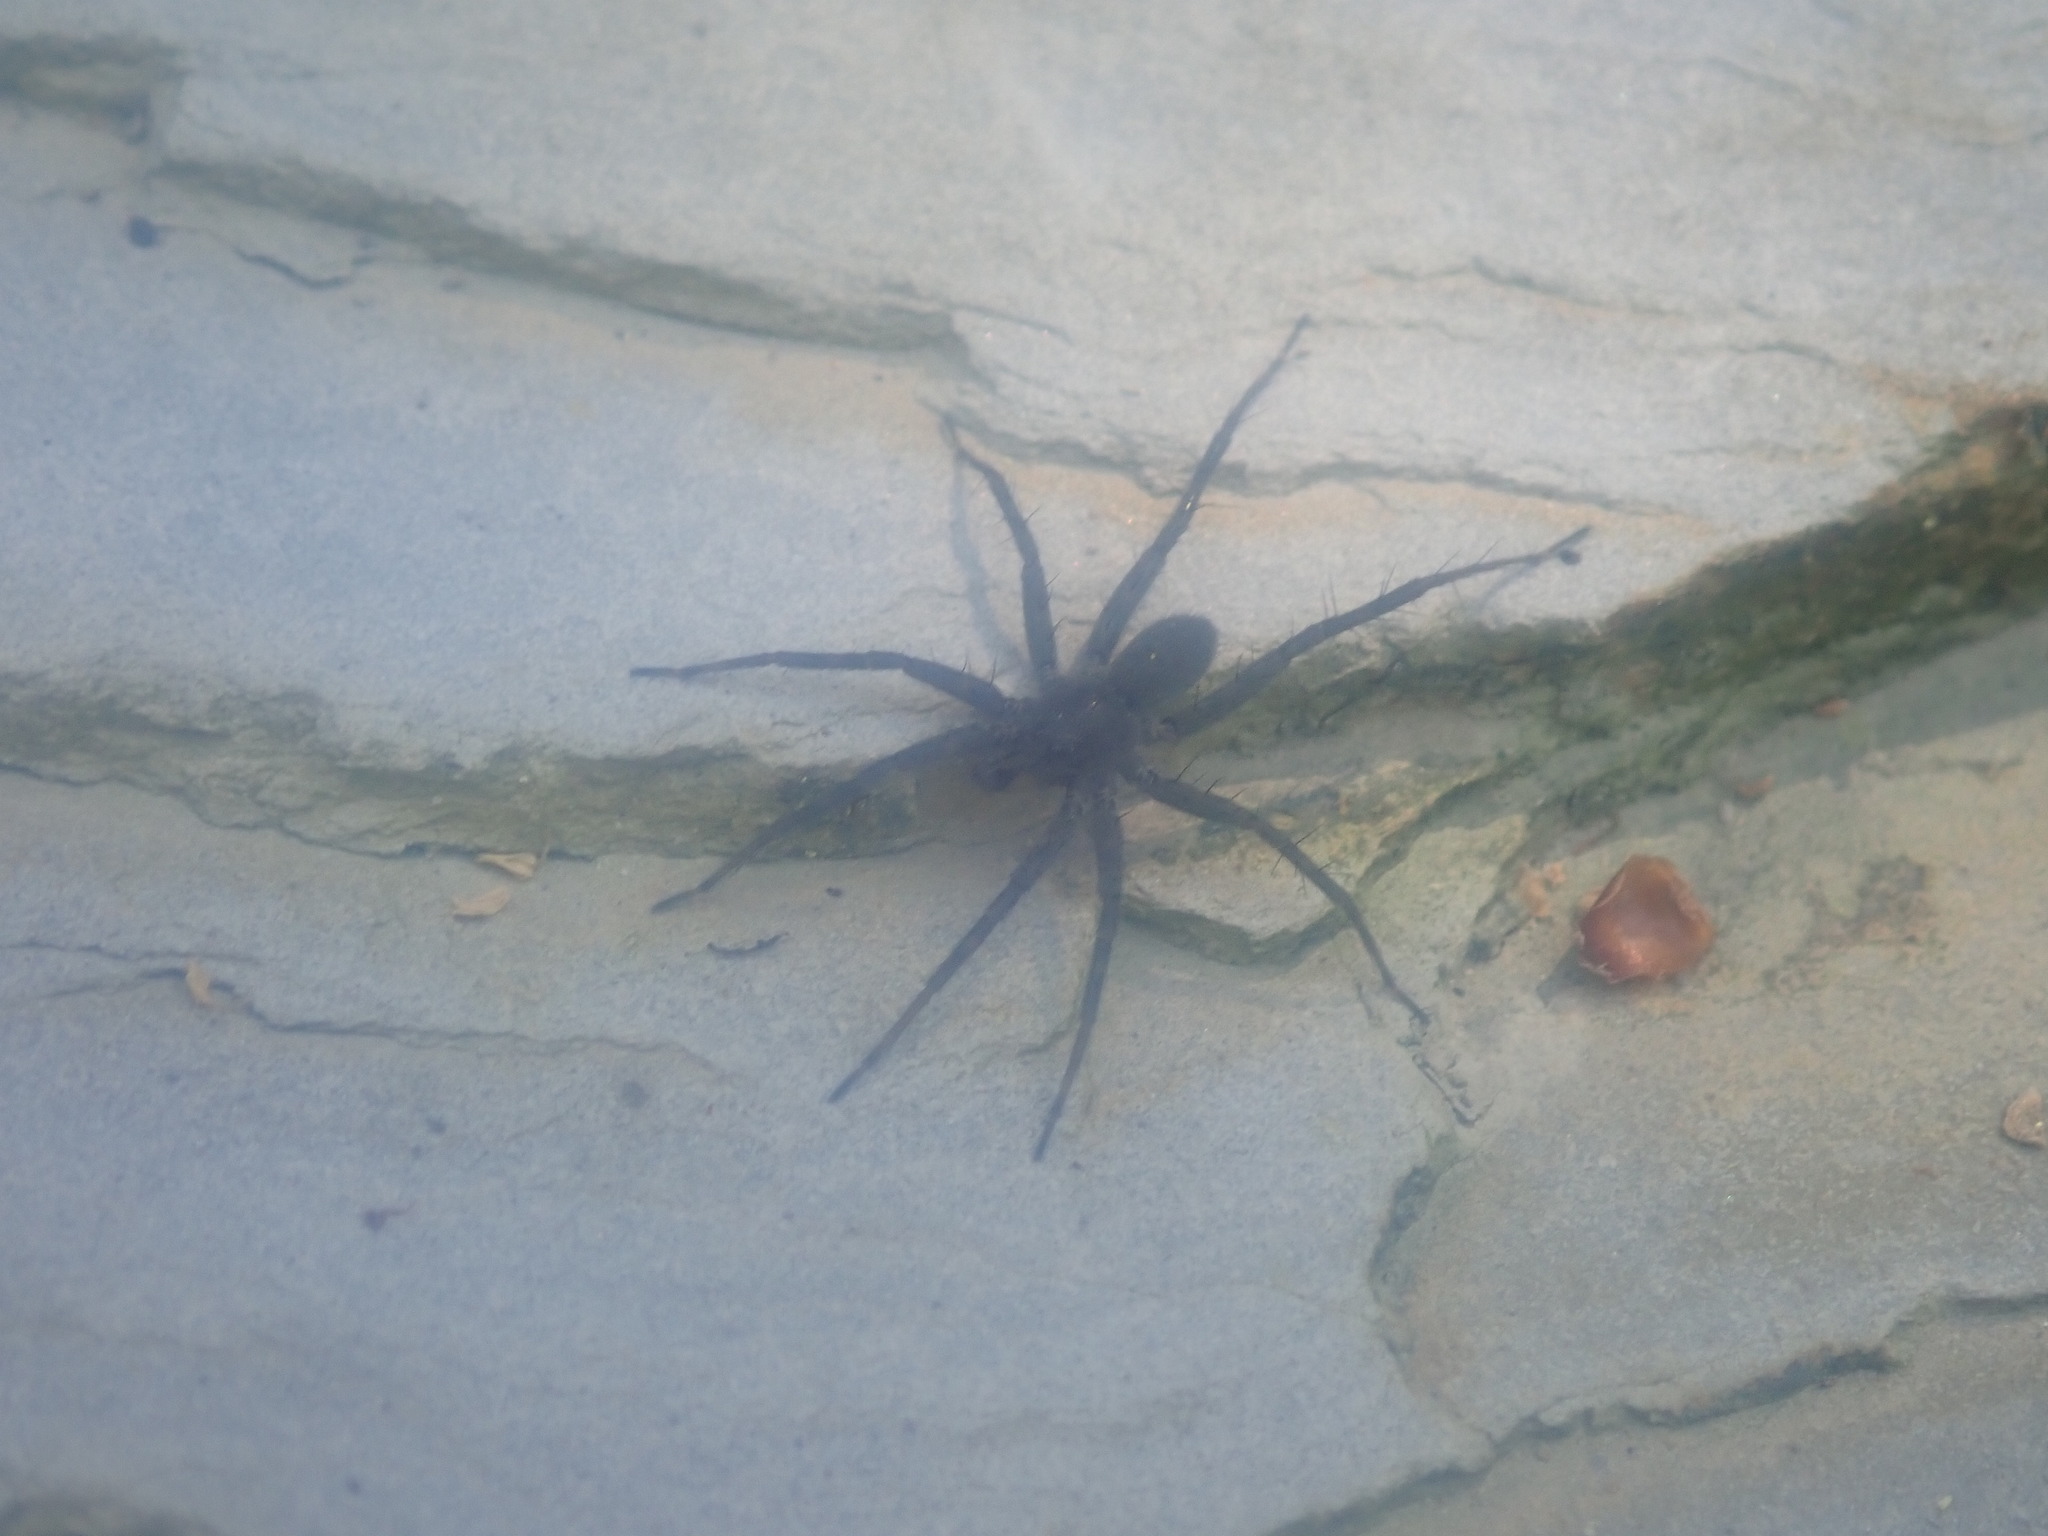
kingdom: Animalia
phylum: Arthropoda
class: Arachnida
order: Araneae
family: Lycosidae
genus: Pardosa
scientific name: Pardosa lapidicina
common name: Stone spider
